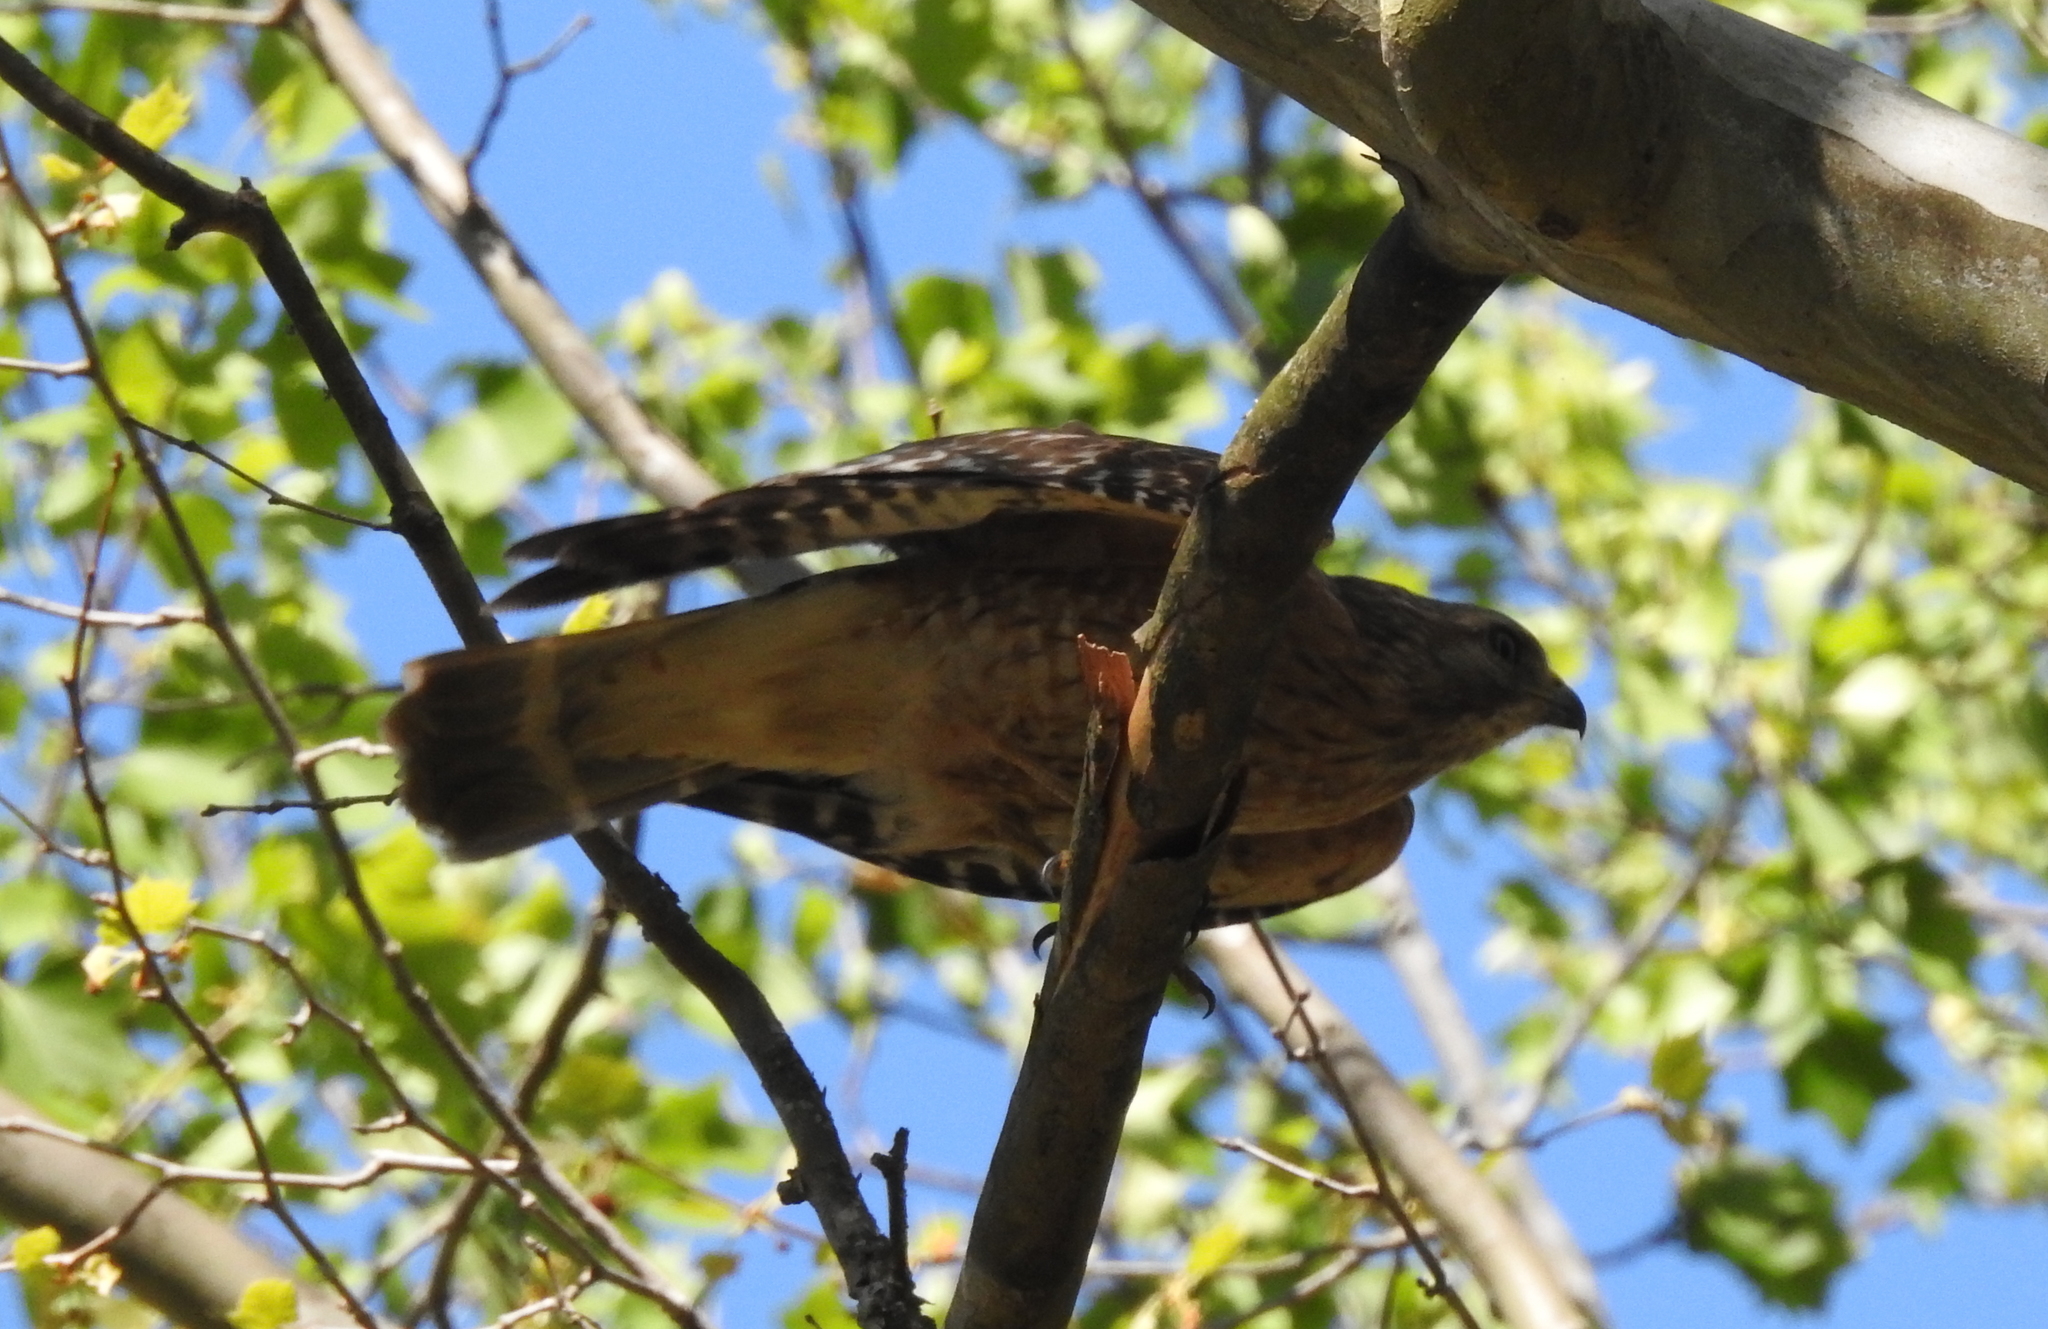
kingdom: Animalia
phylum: Chordata
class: Aves
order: Accipitriformes
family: Accipitridae
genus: Buteo
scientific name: Buteo lineatus
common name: Red-shouldered hawk
